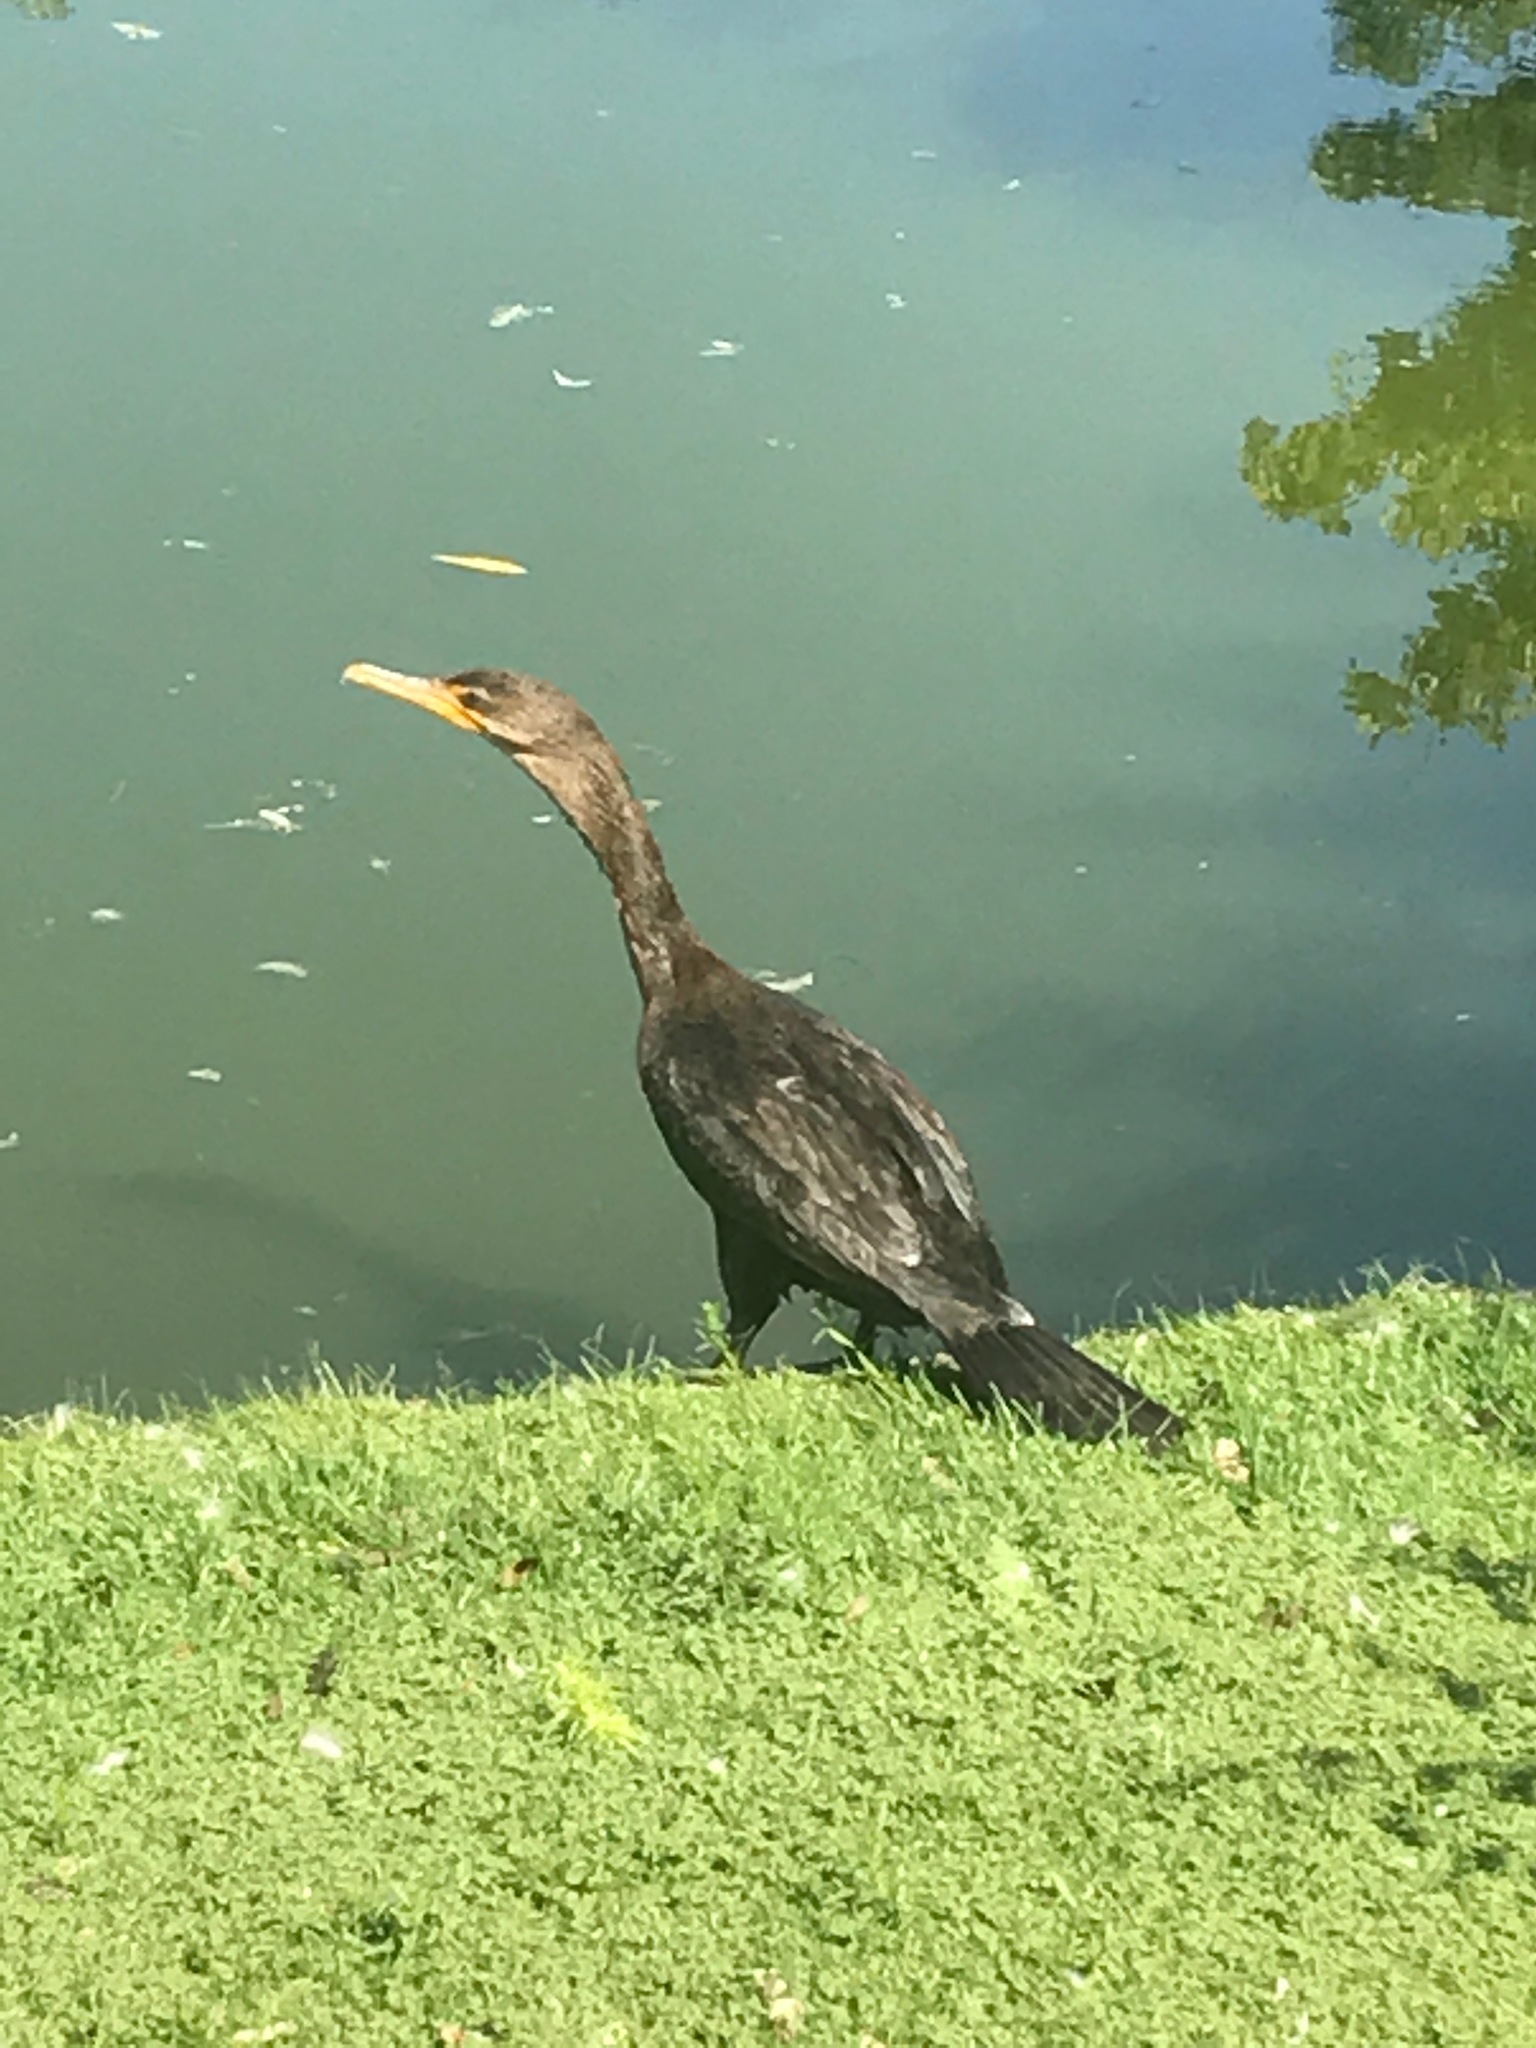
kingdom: Animalia
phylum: Chordata
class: Aves
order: Suliformes
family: Phalacrocoracidae
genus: Phalacrocorax
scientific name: Phalacrocorax auritus
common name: Double-crested cormorant
